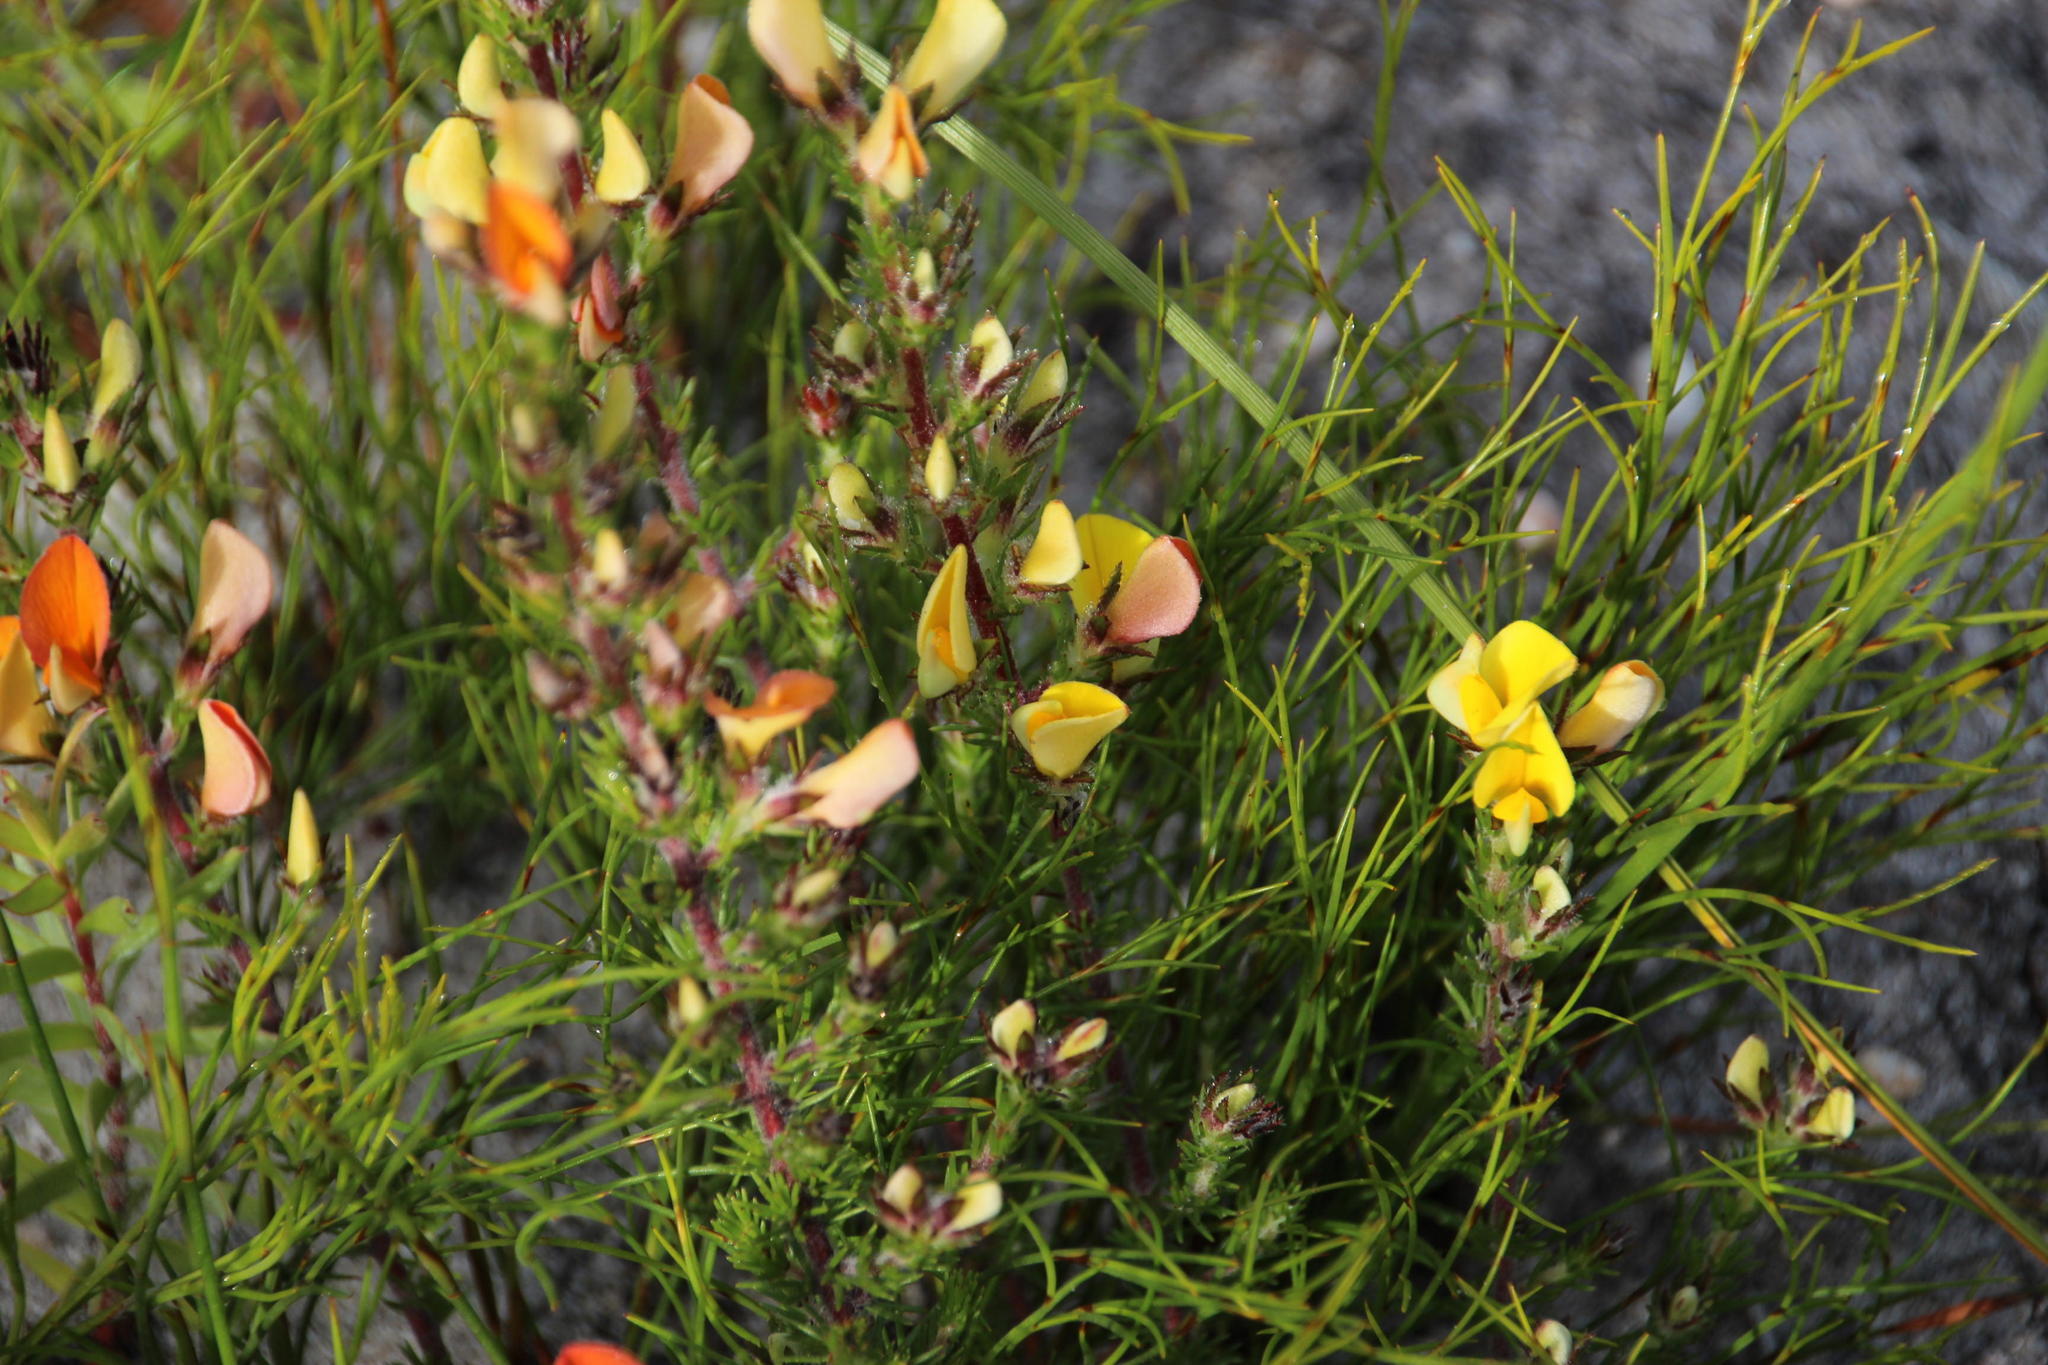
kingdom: Plantae
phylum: Tracheophyta
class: Magnoliopsida
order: Fabales
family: Fabaceae
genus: Aspalathus
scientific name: Aspalathus linguiloba
